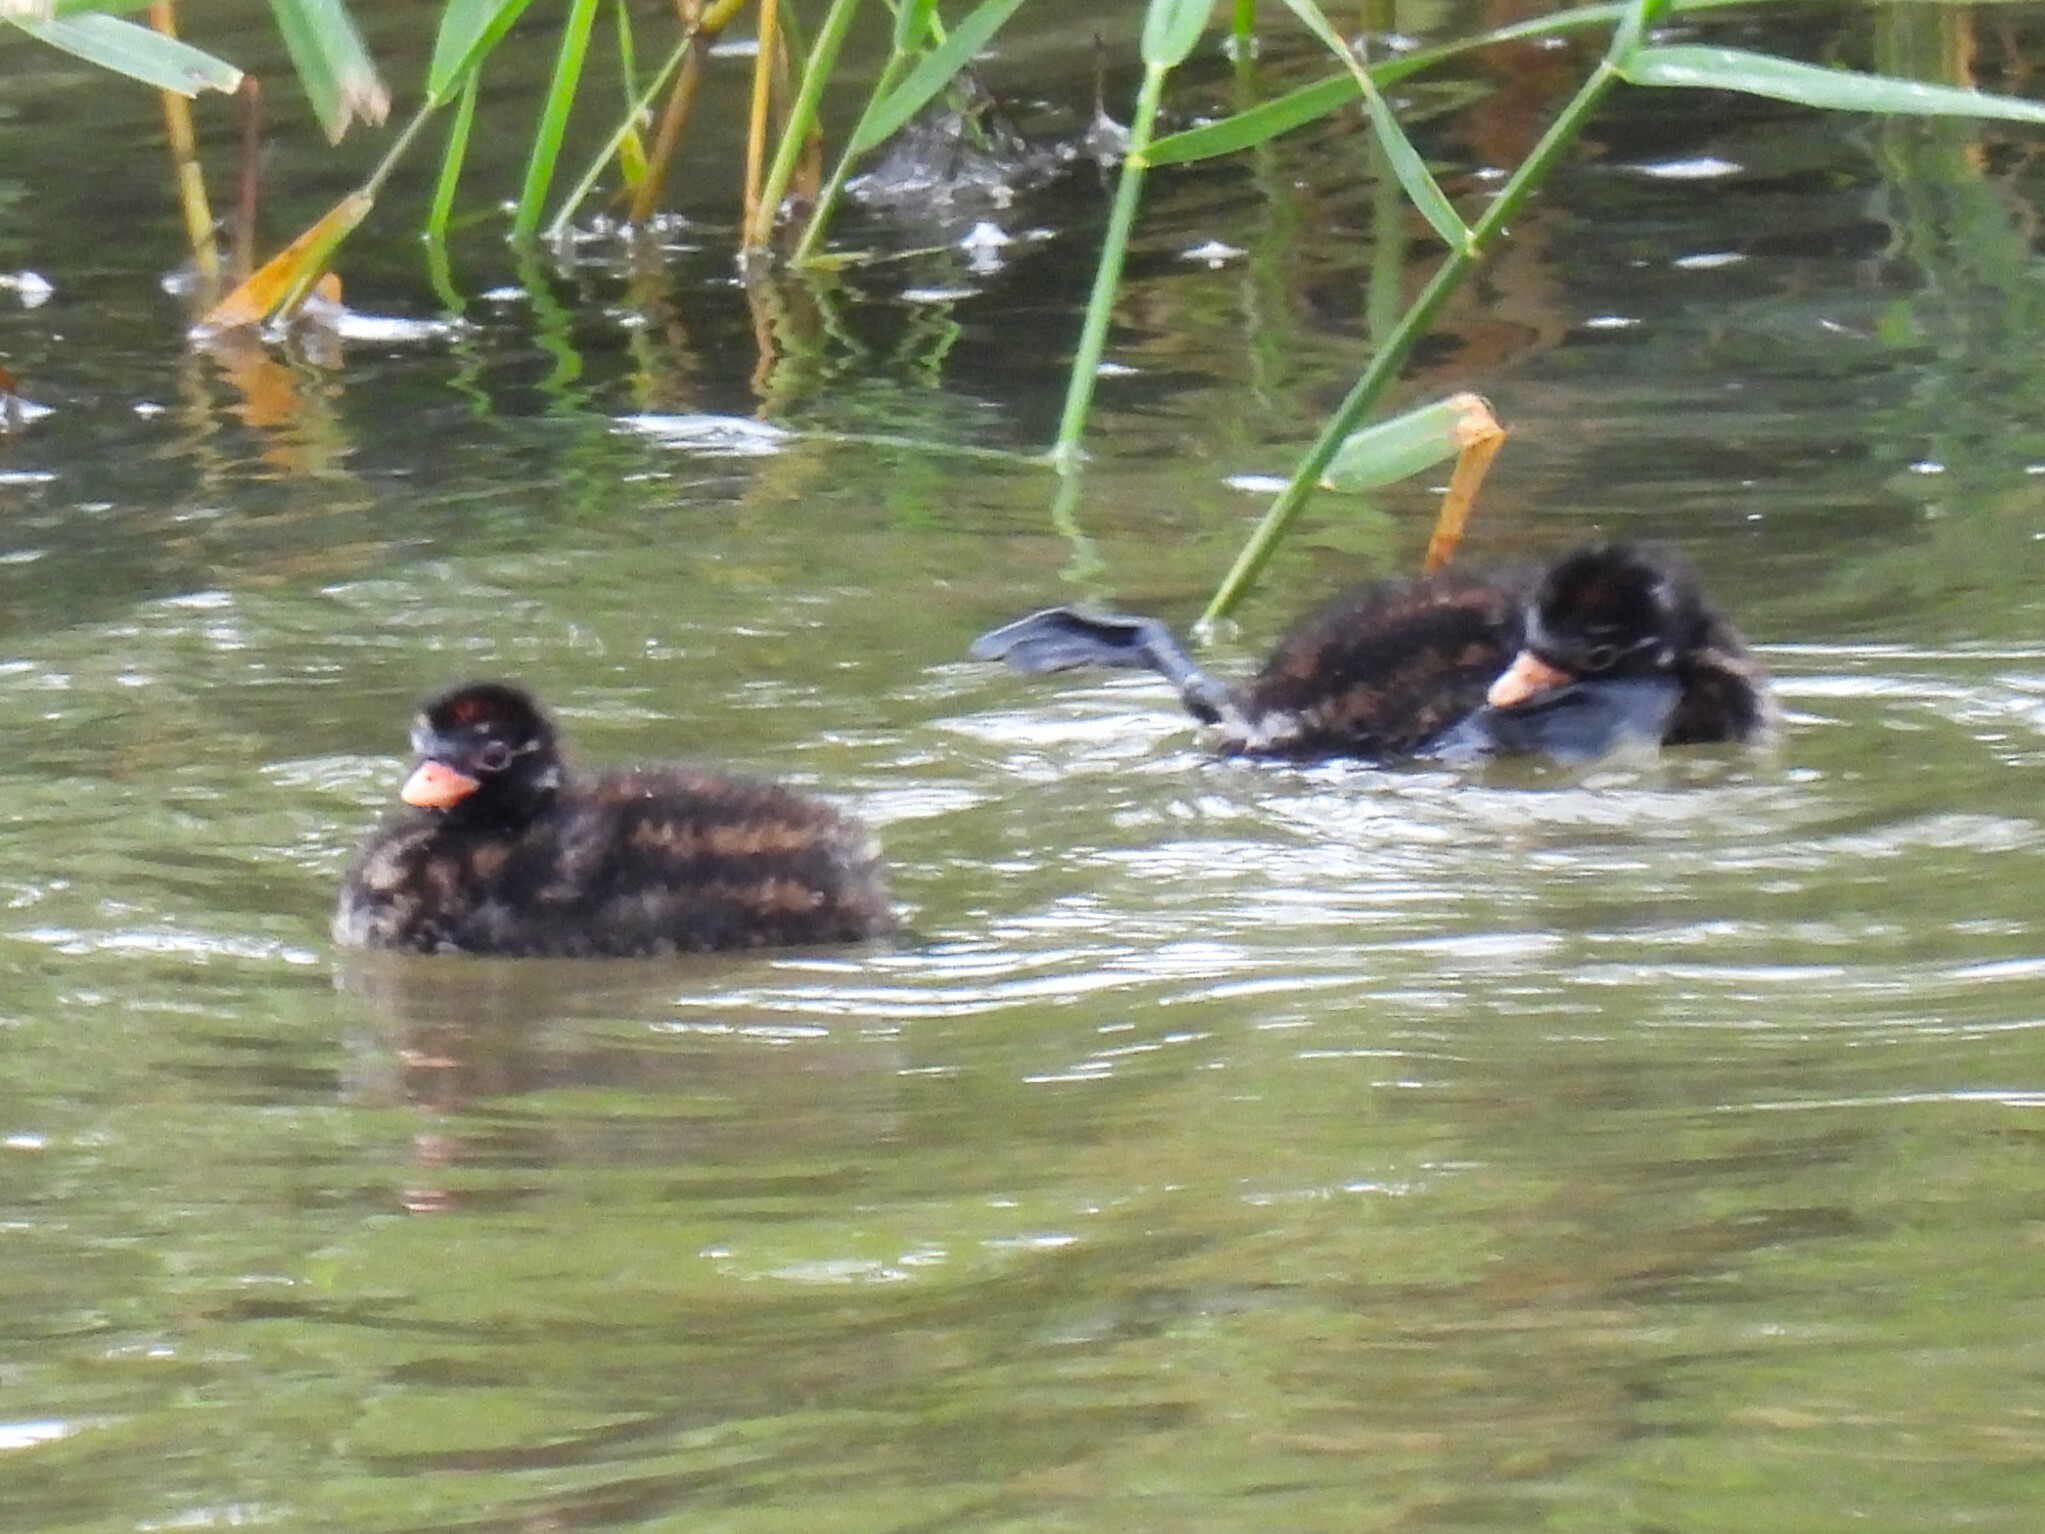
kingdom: Animalia
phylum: Chordata
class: Aves
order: Podicipediformes
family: Podicipedidae
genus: Tachybaptus
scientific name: Tachybaptus ruficollis
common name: Little grebe
